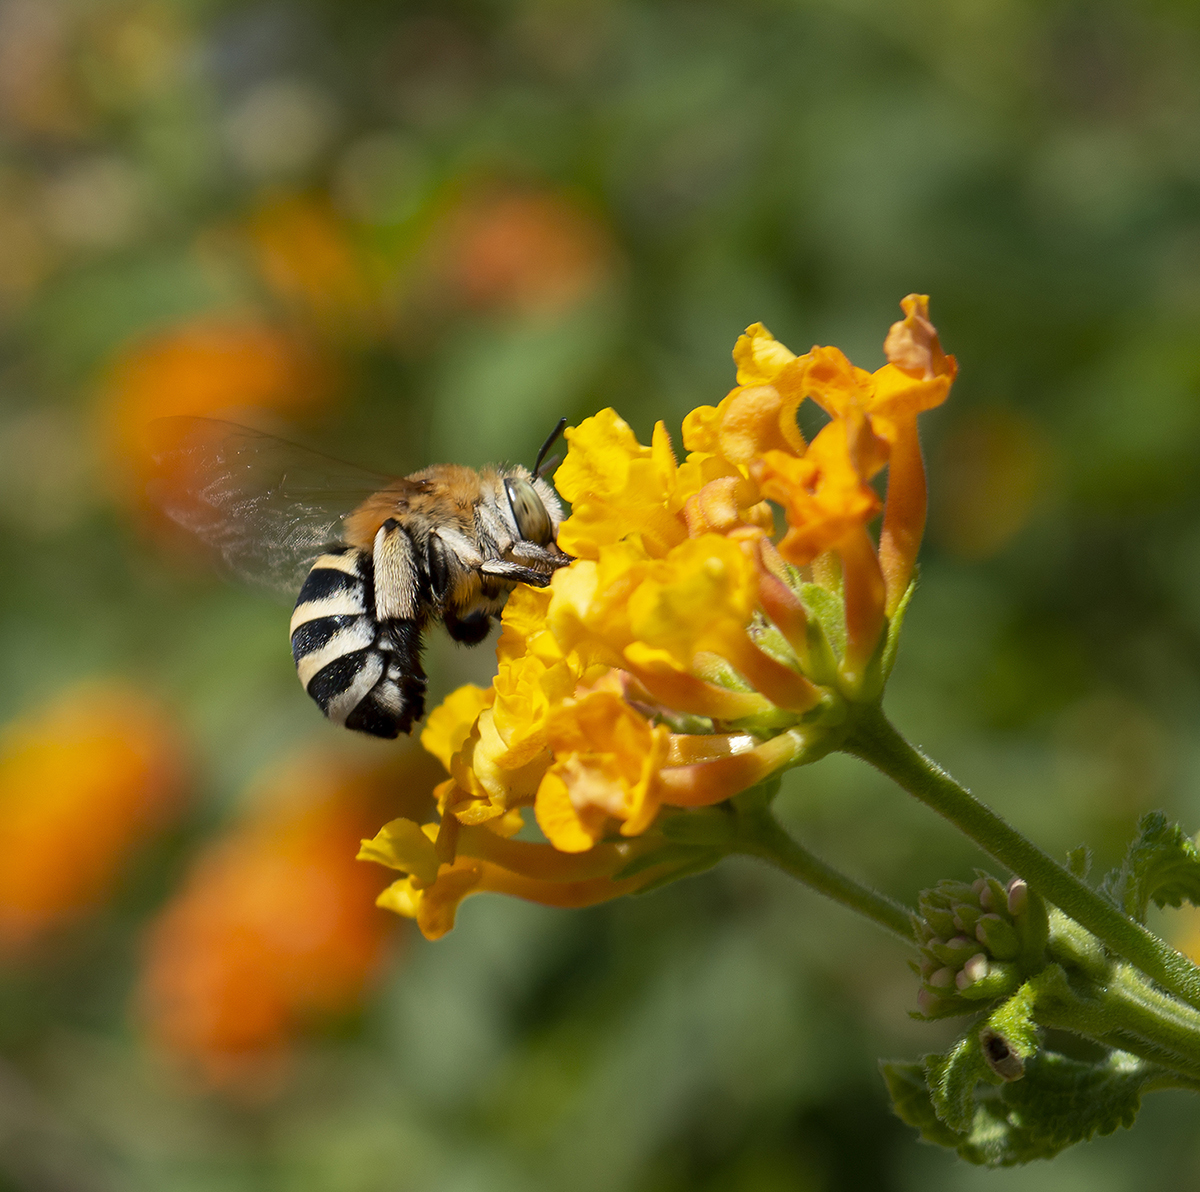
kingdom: Animalia
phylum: Arthropoda
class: Insecta
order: Hymenoptera
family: Apidae
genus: Amegilla
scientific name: Amegilla quadrifasciata
